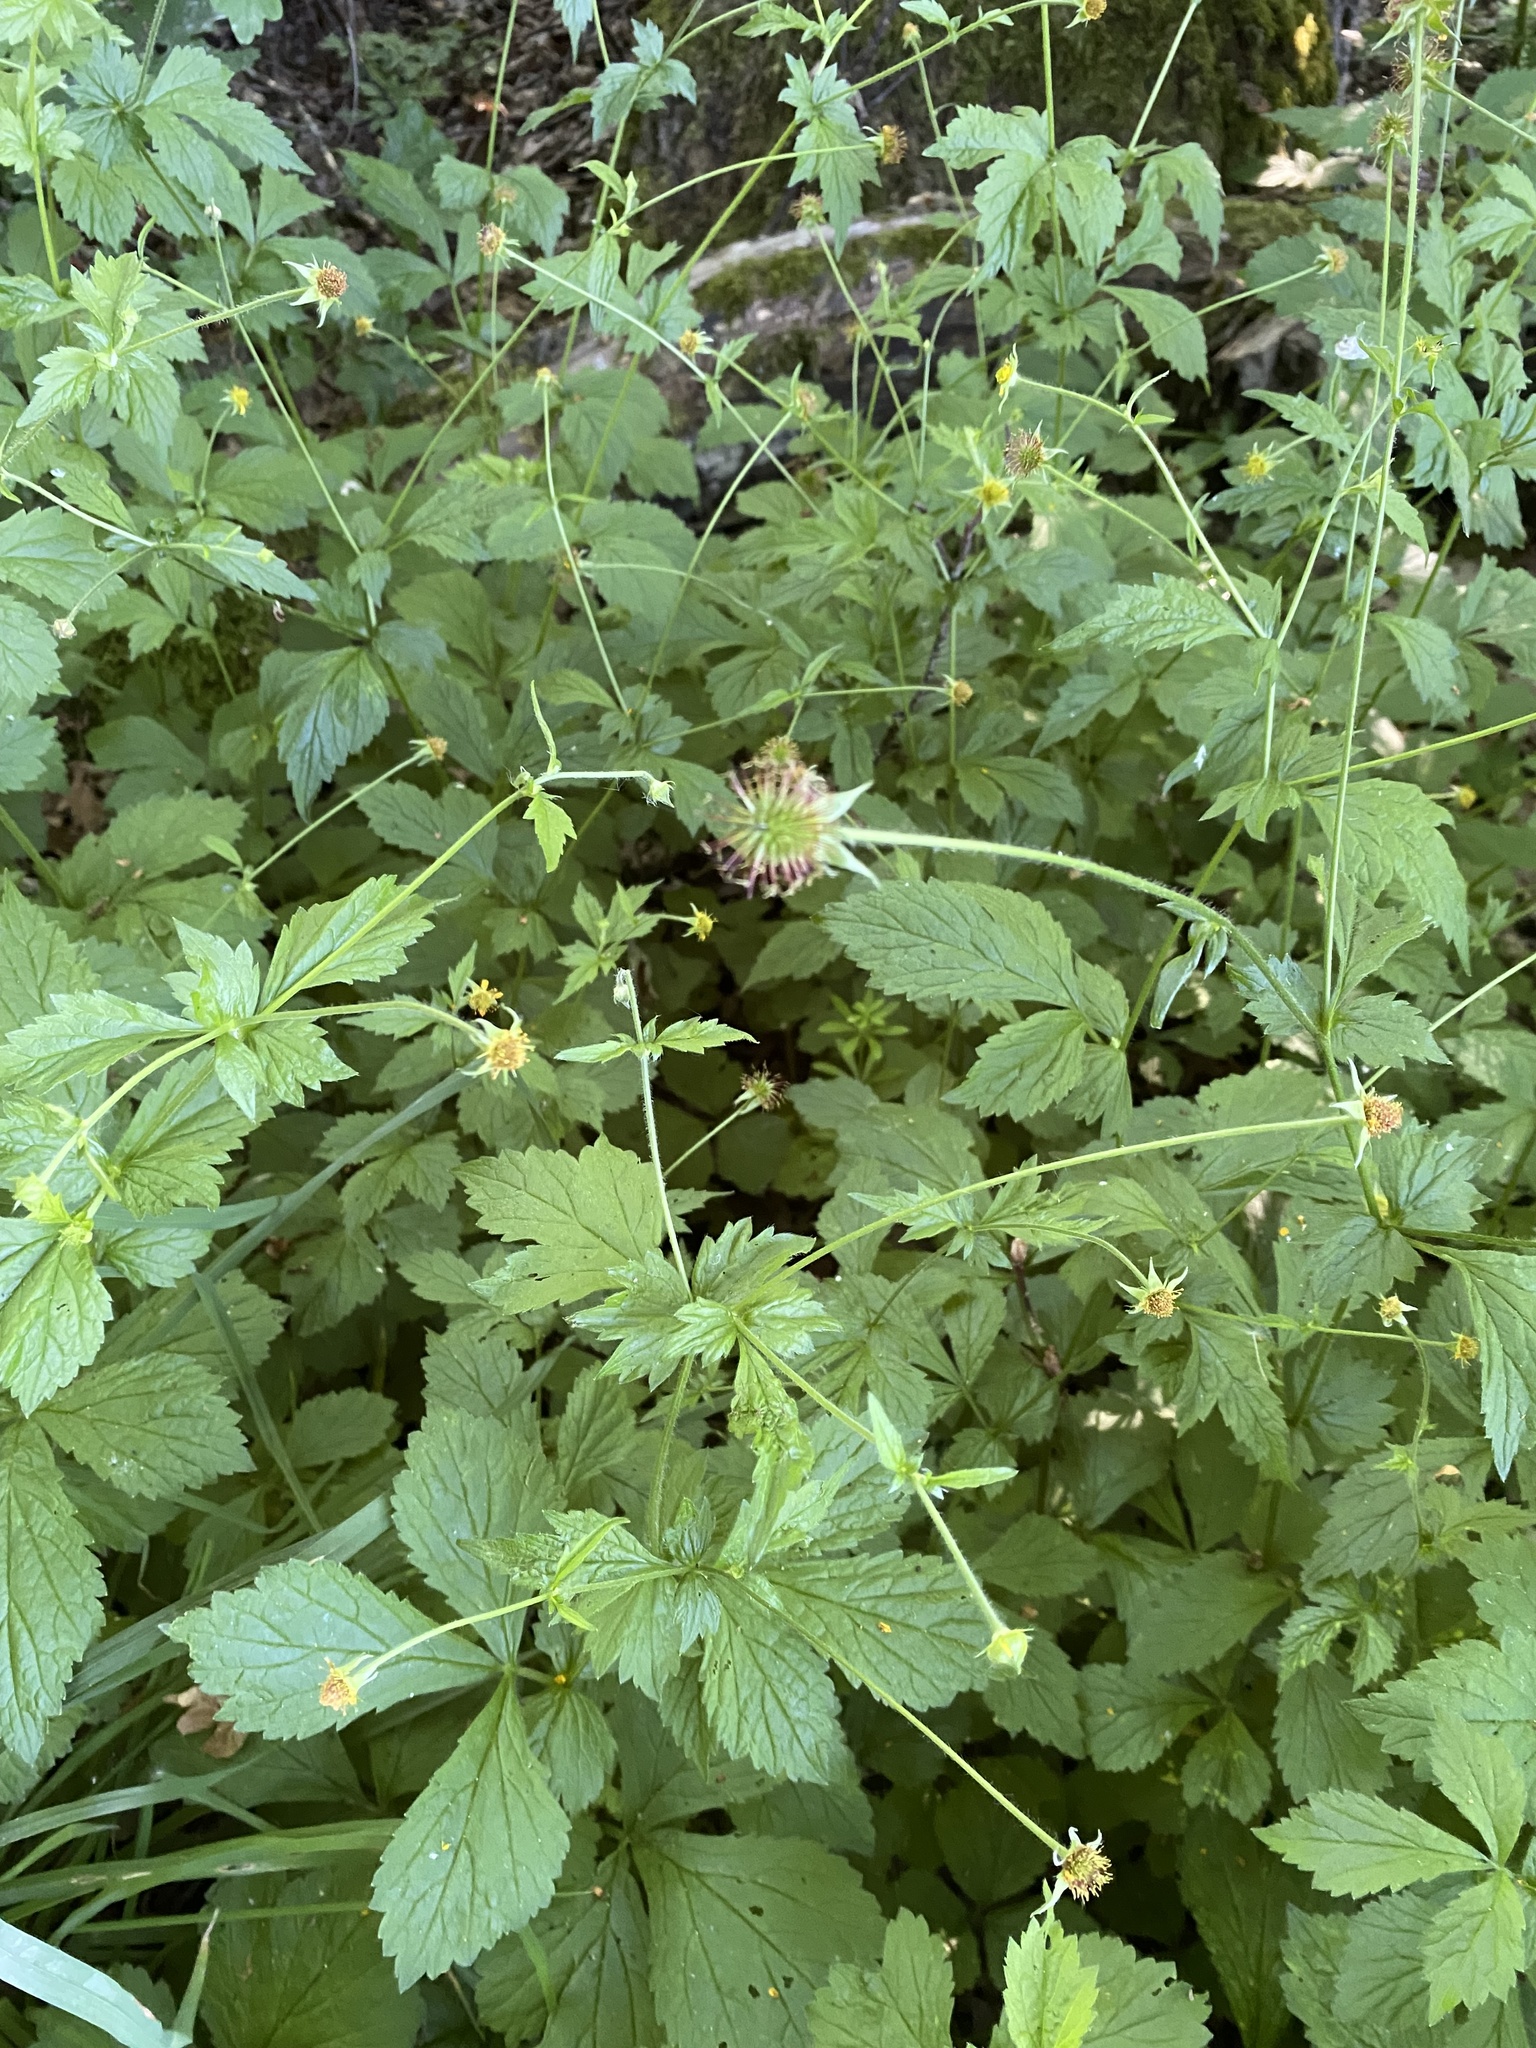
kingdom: Plantae
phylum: Tracheophyta
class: Magnoliopsida
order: Rosales
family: Rosaceae
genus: Geum
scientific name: Geum urbanum
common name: Wood avens
